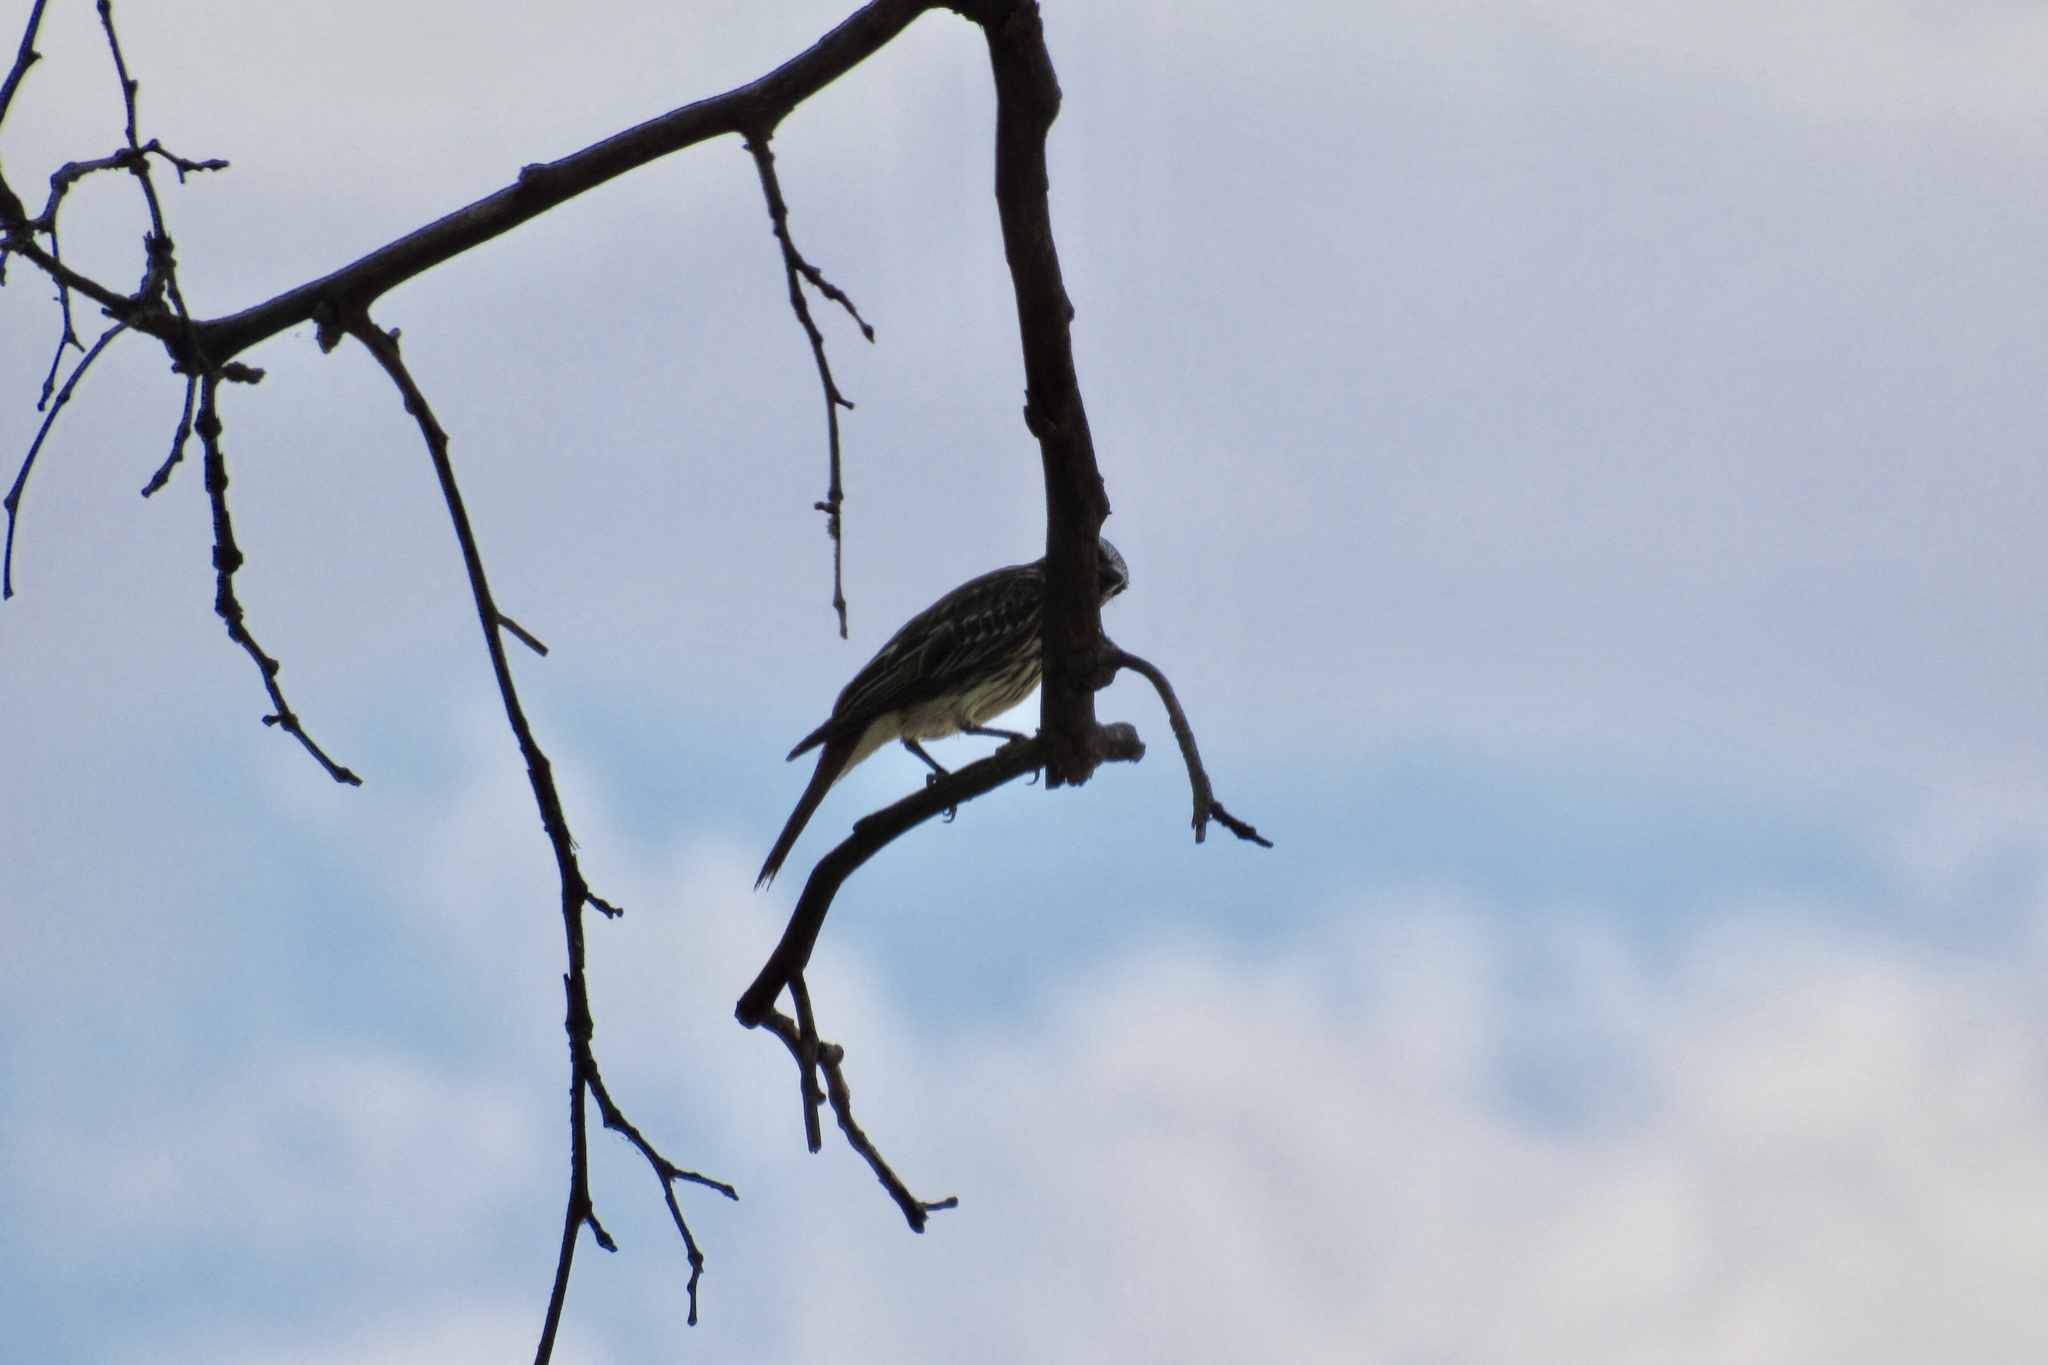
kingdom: Animalia
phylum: Chordata
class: Aves
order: Passeriformes
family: Tyrannidae
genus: Myiodynastes
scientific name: Myiodynastes luteiventris
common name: Sulphur-bellied flycatcher
